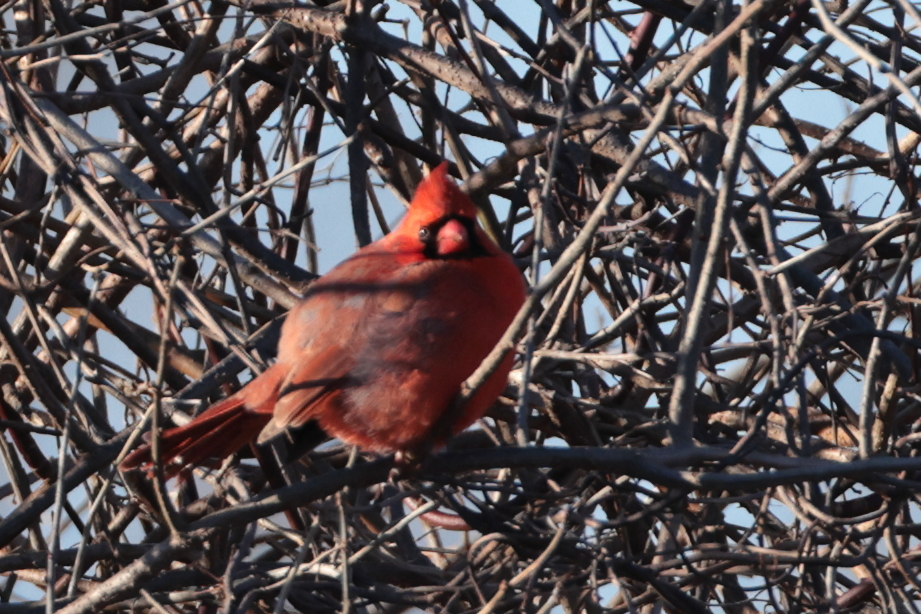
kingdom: Animalia
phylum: Chordata
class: Aves
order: Passeriformes
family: Cardinalidae
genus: Cardinalis
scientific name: Cardinalis cardinalis
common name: Northern cardinal
